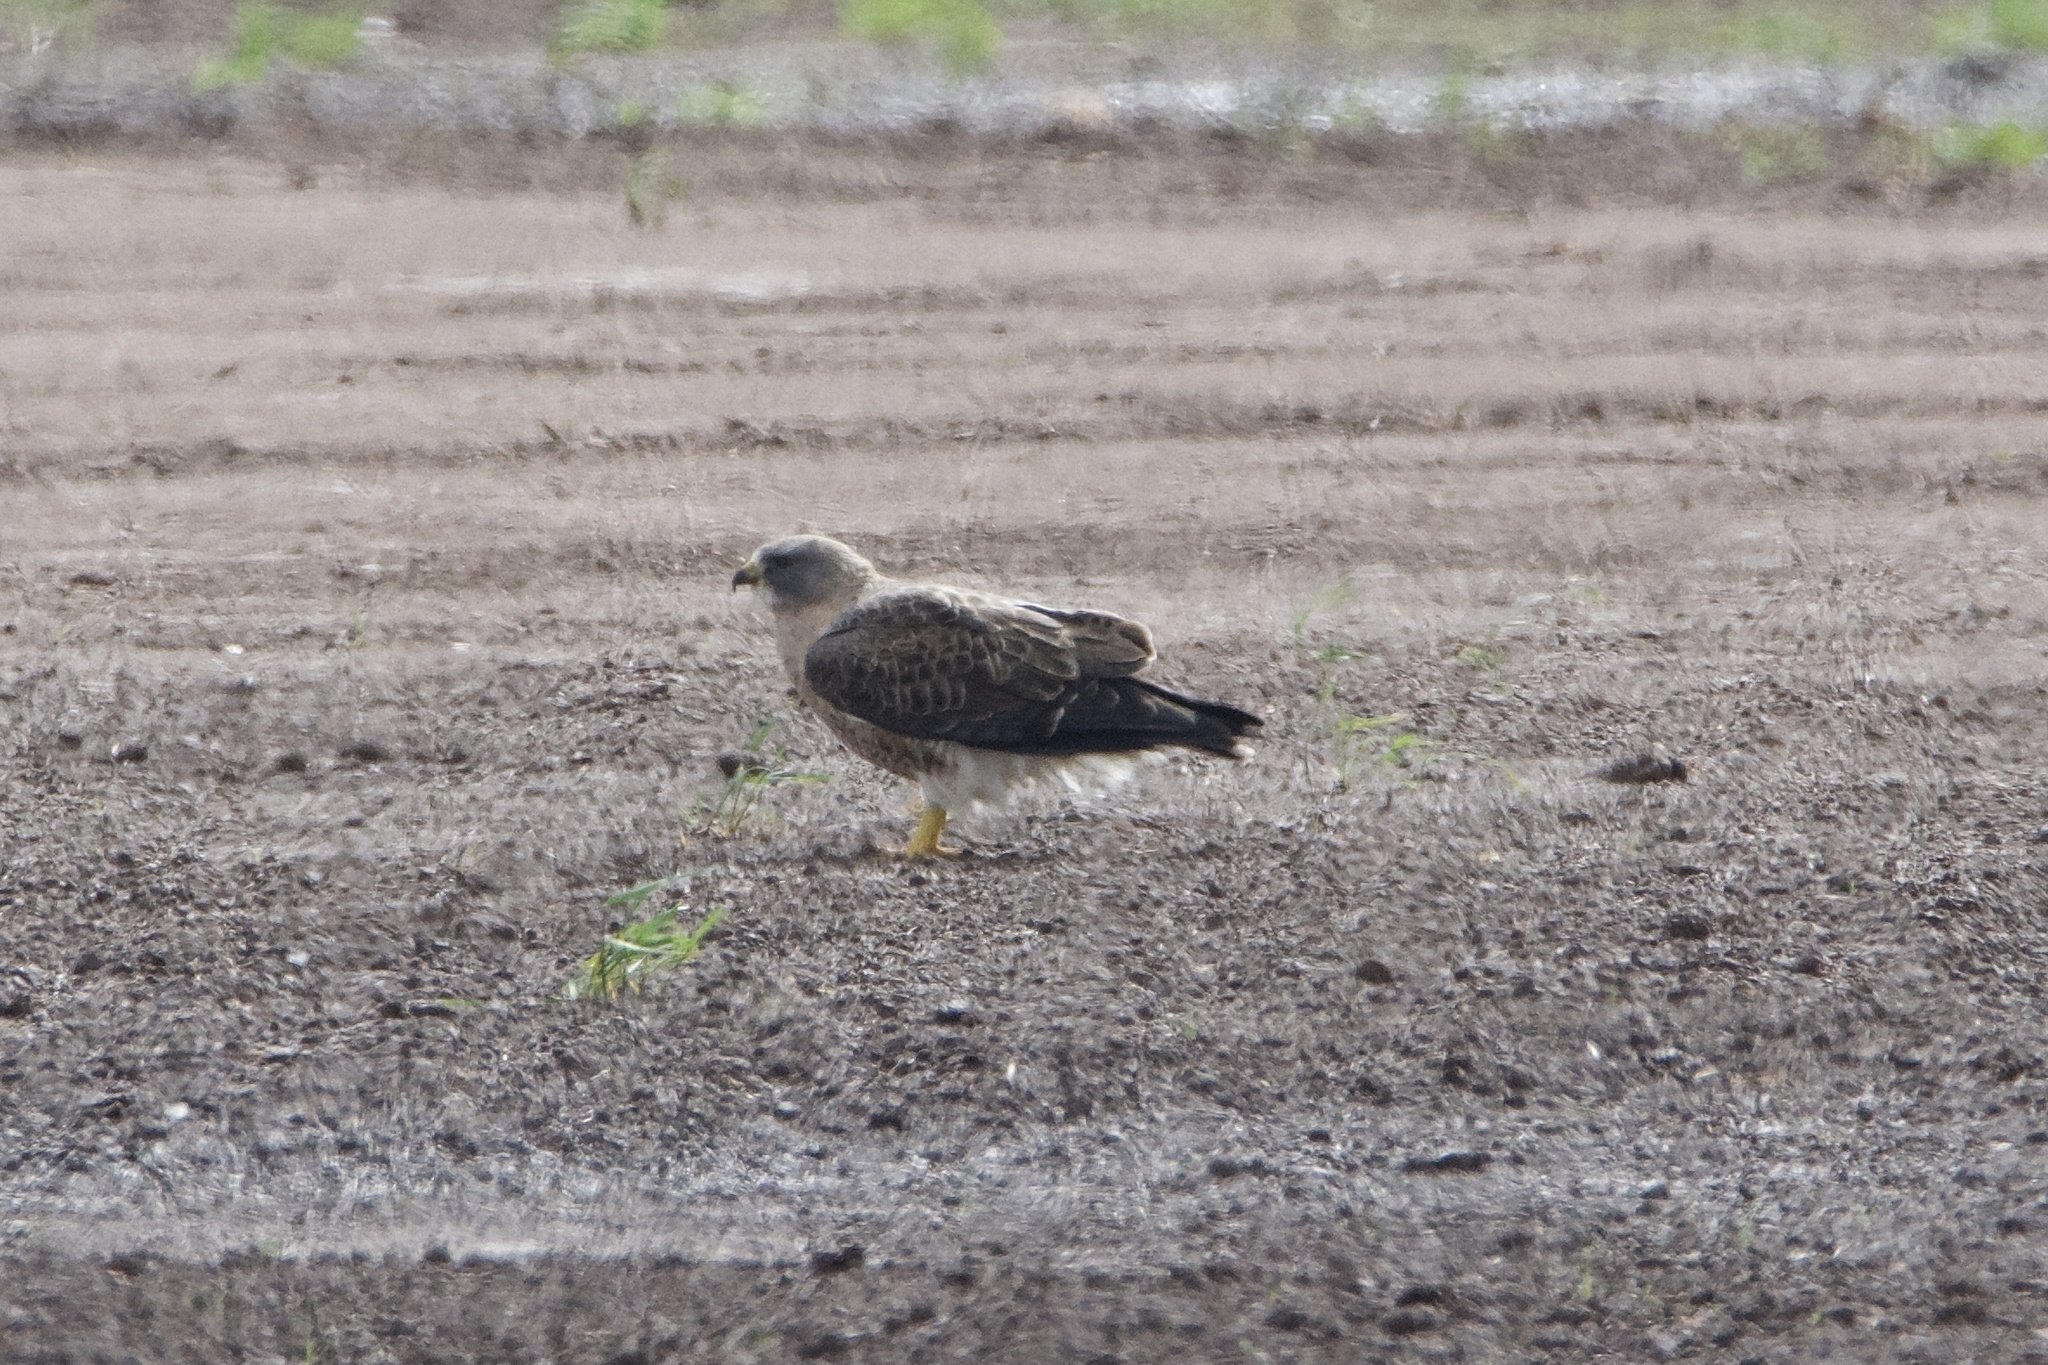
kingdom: Animalia
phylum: Chordata
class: Aves
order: Accipitriformes
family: Accipitridae
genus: Buteo
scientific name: Buteo swainsoni
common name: Swainson's hawk
